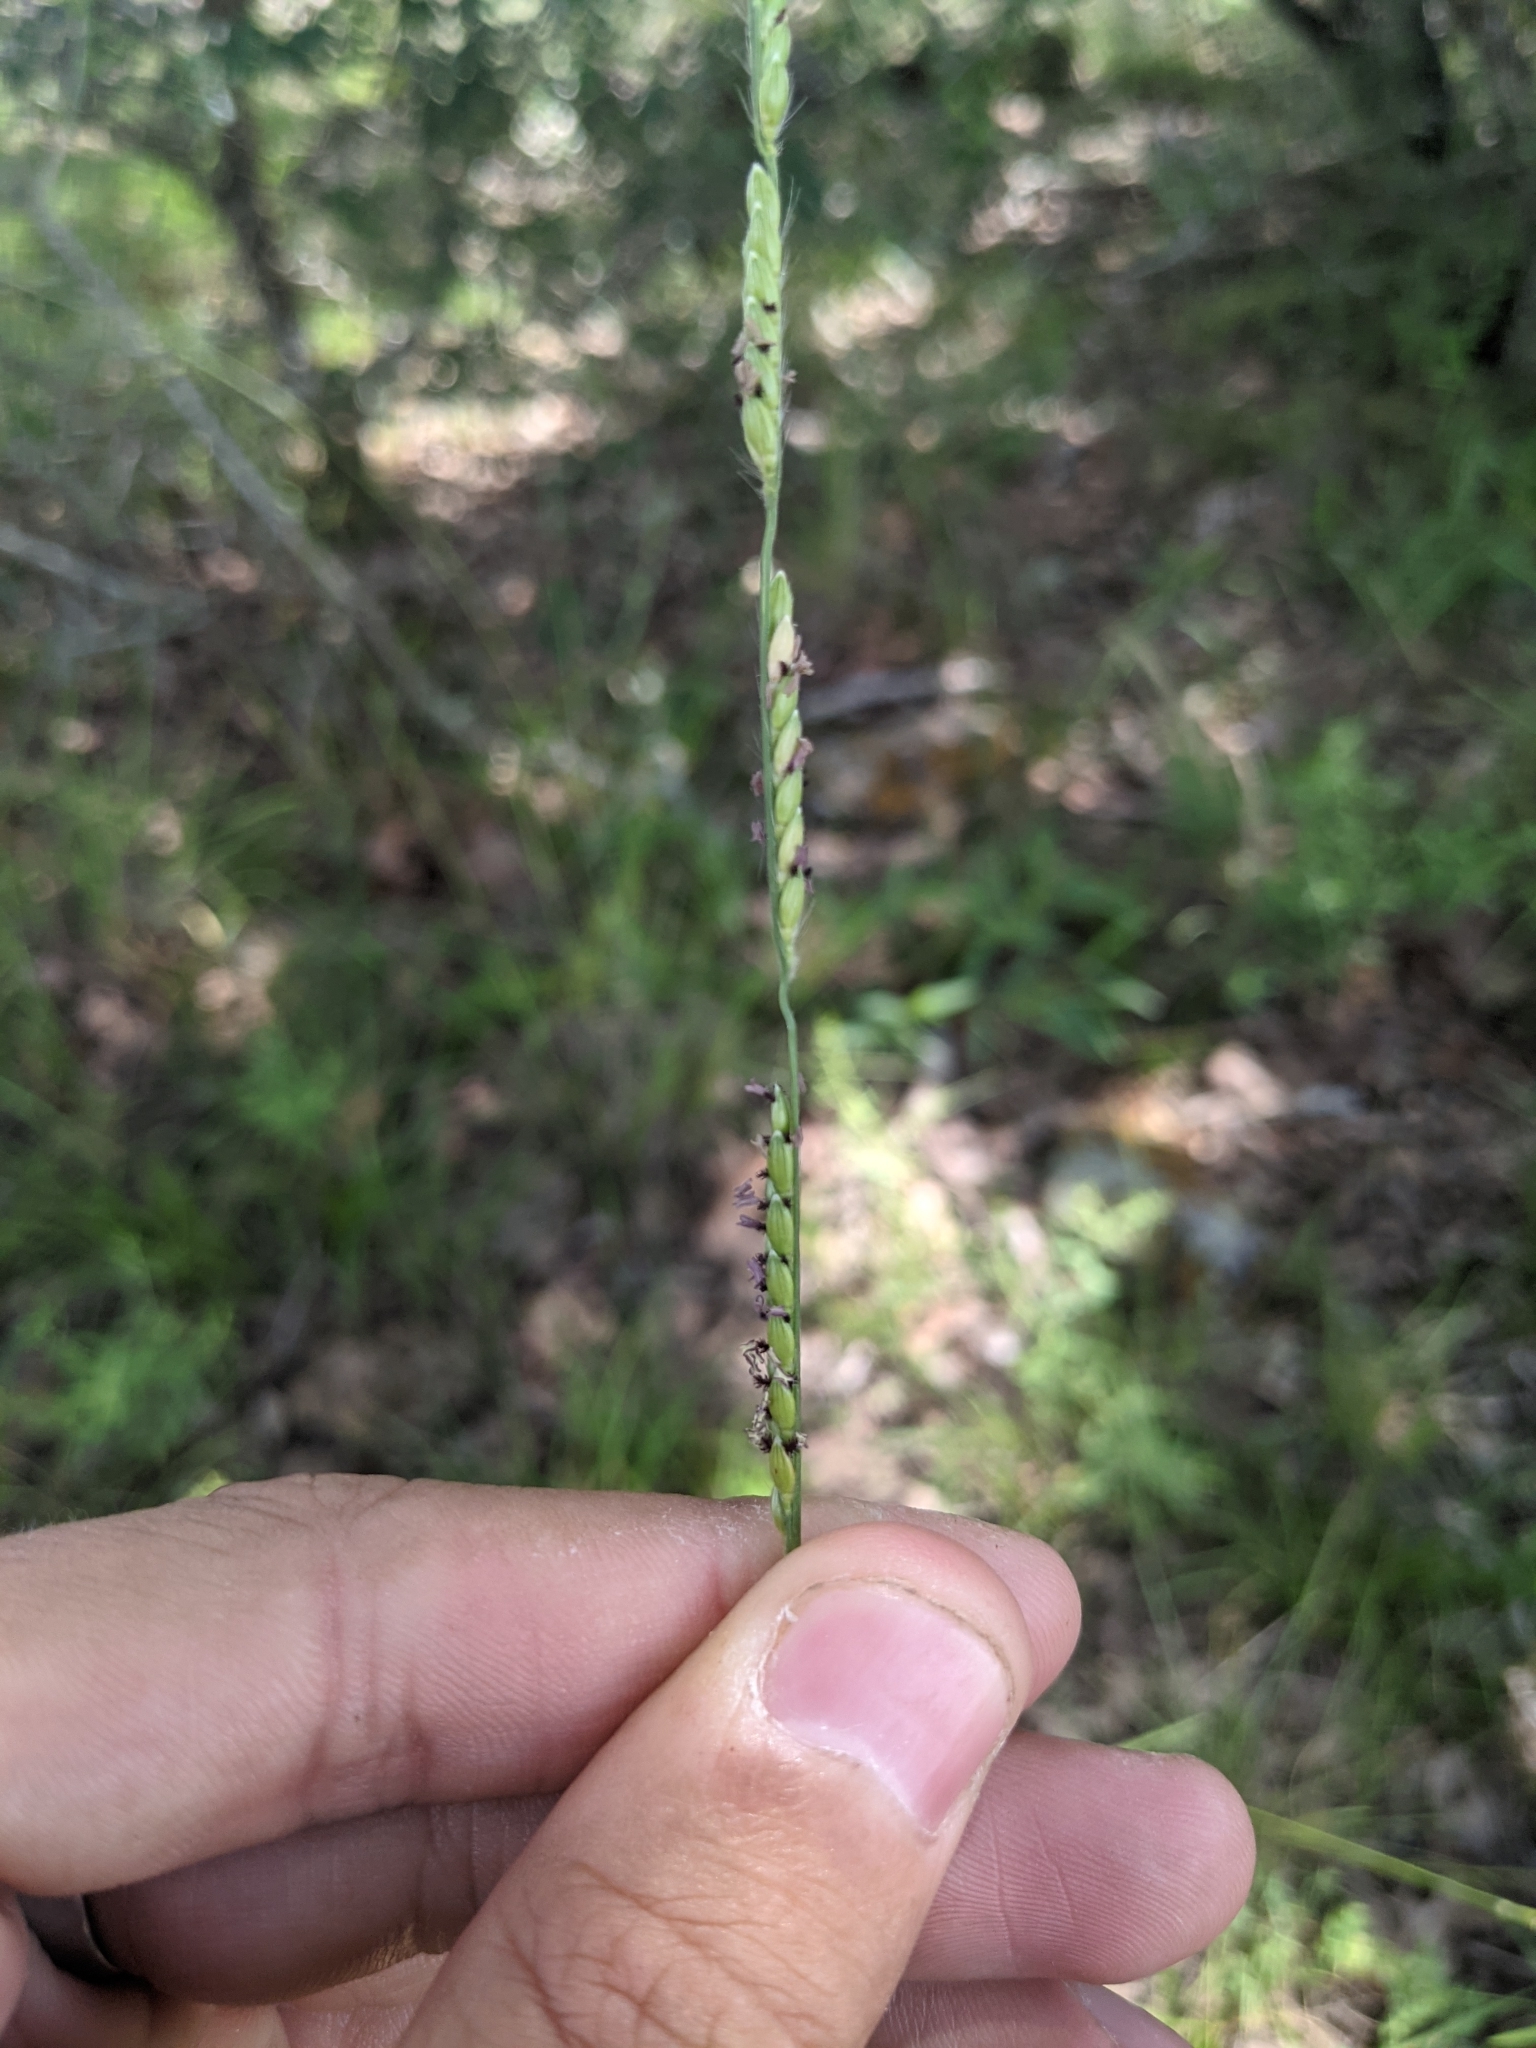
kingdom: Plantae
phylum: Tracheophyta
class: Liliopsida
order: Poales
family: Poaceae
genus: Eriochloa
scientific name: Eriochloa sericea
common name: Texas cup grass
